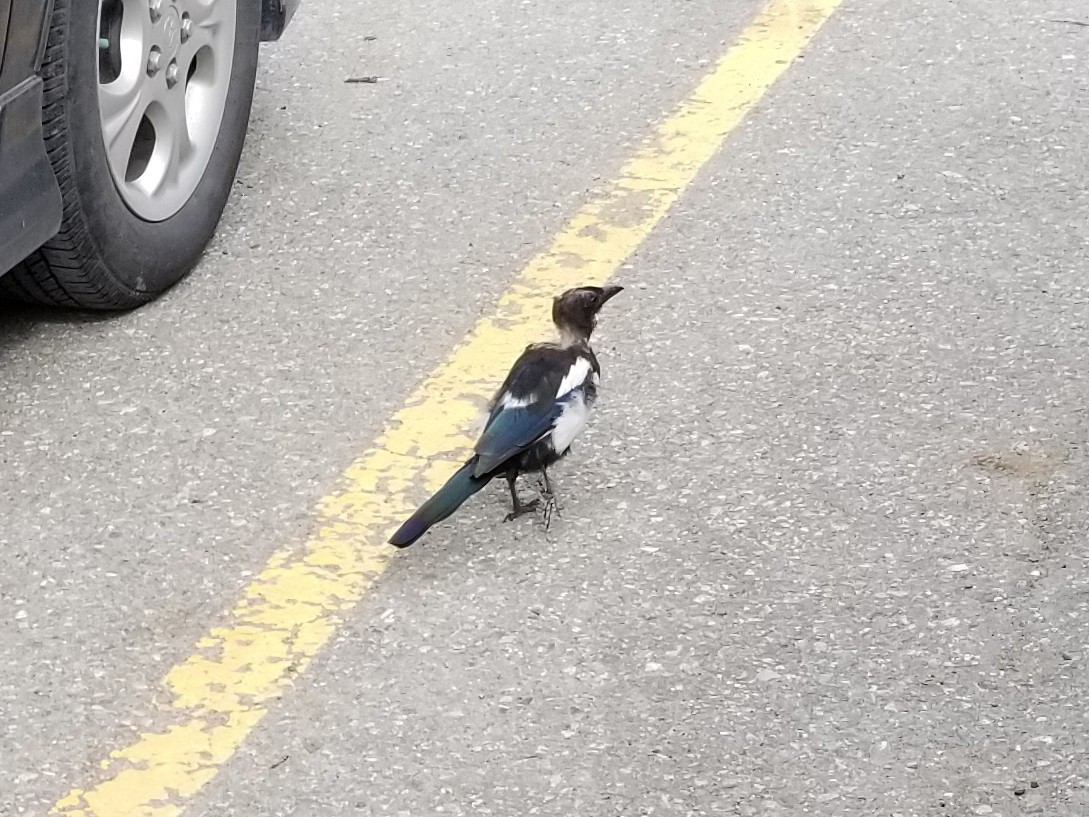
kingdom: Animalia
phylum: Chordata
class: Aves
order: Passeriformes
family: Corvidae
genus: Pica
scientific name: Pica hudsonia
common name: Black-billed magpie
